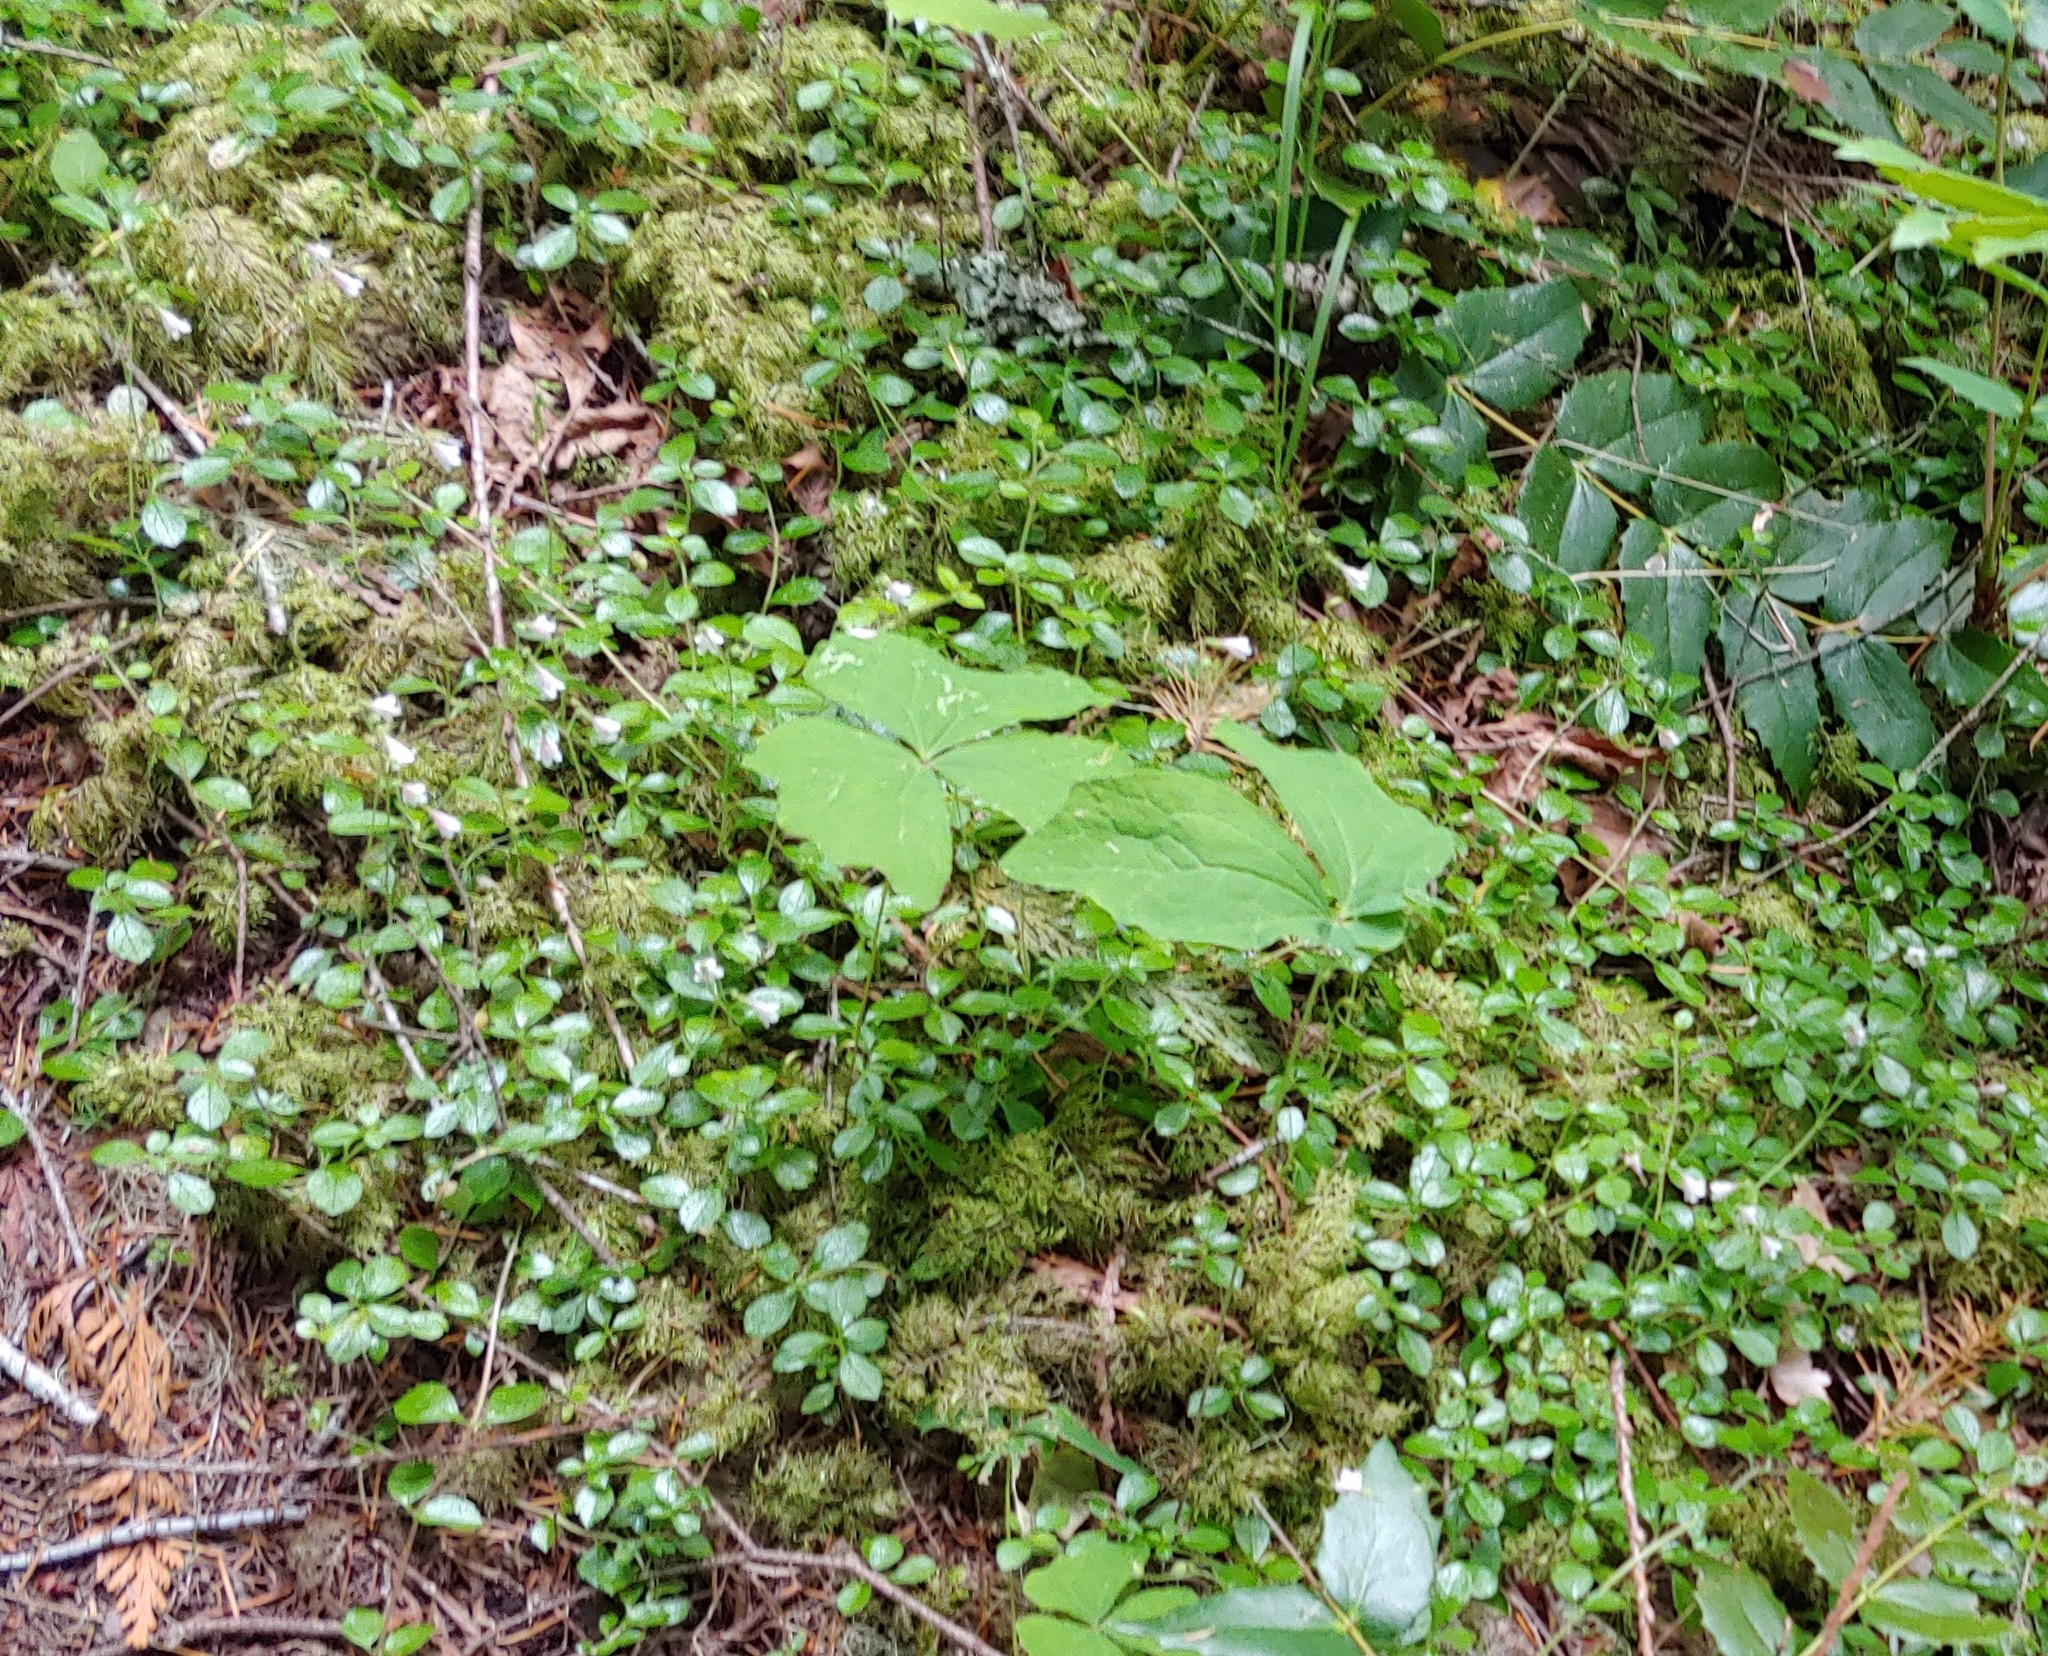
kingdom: Plantae
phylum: Tracheophyta
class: Magnoliopsida
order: Ranunculales
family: Berberidaceae
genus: Achlys
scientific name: Achlys triphylla
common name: Vanilla-leaf
